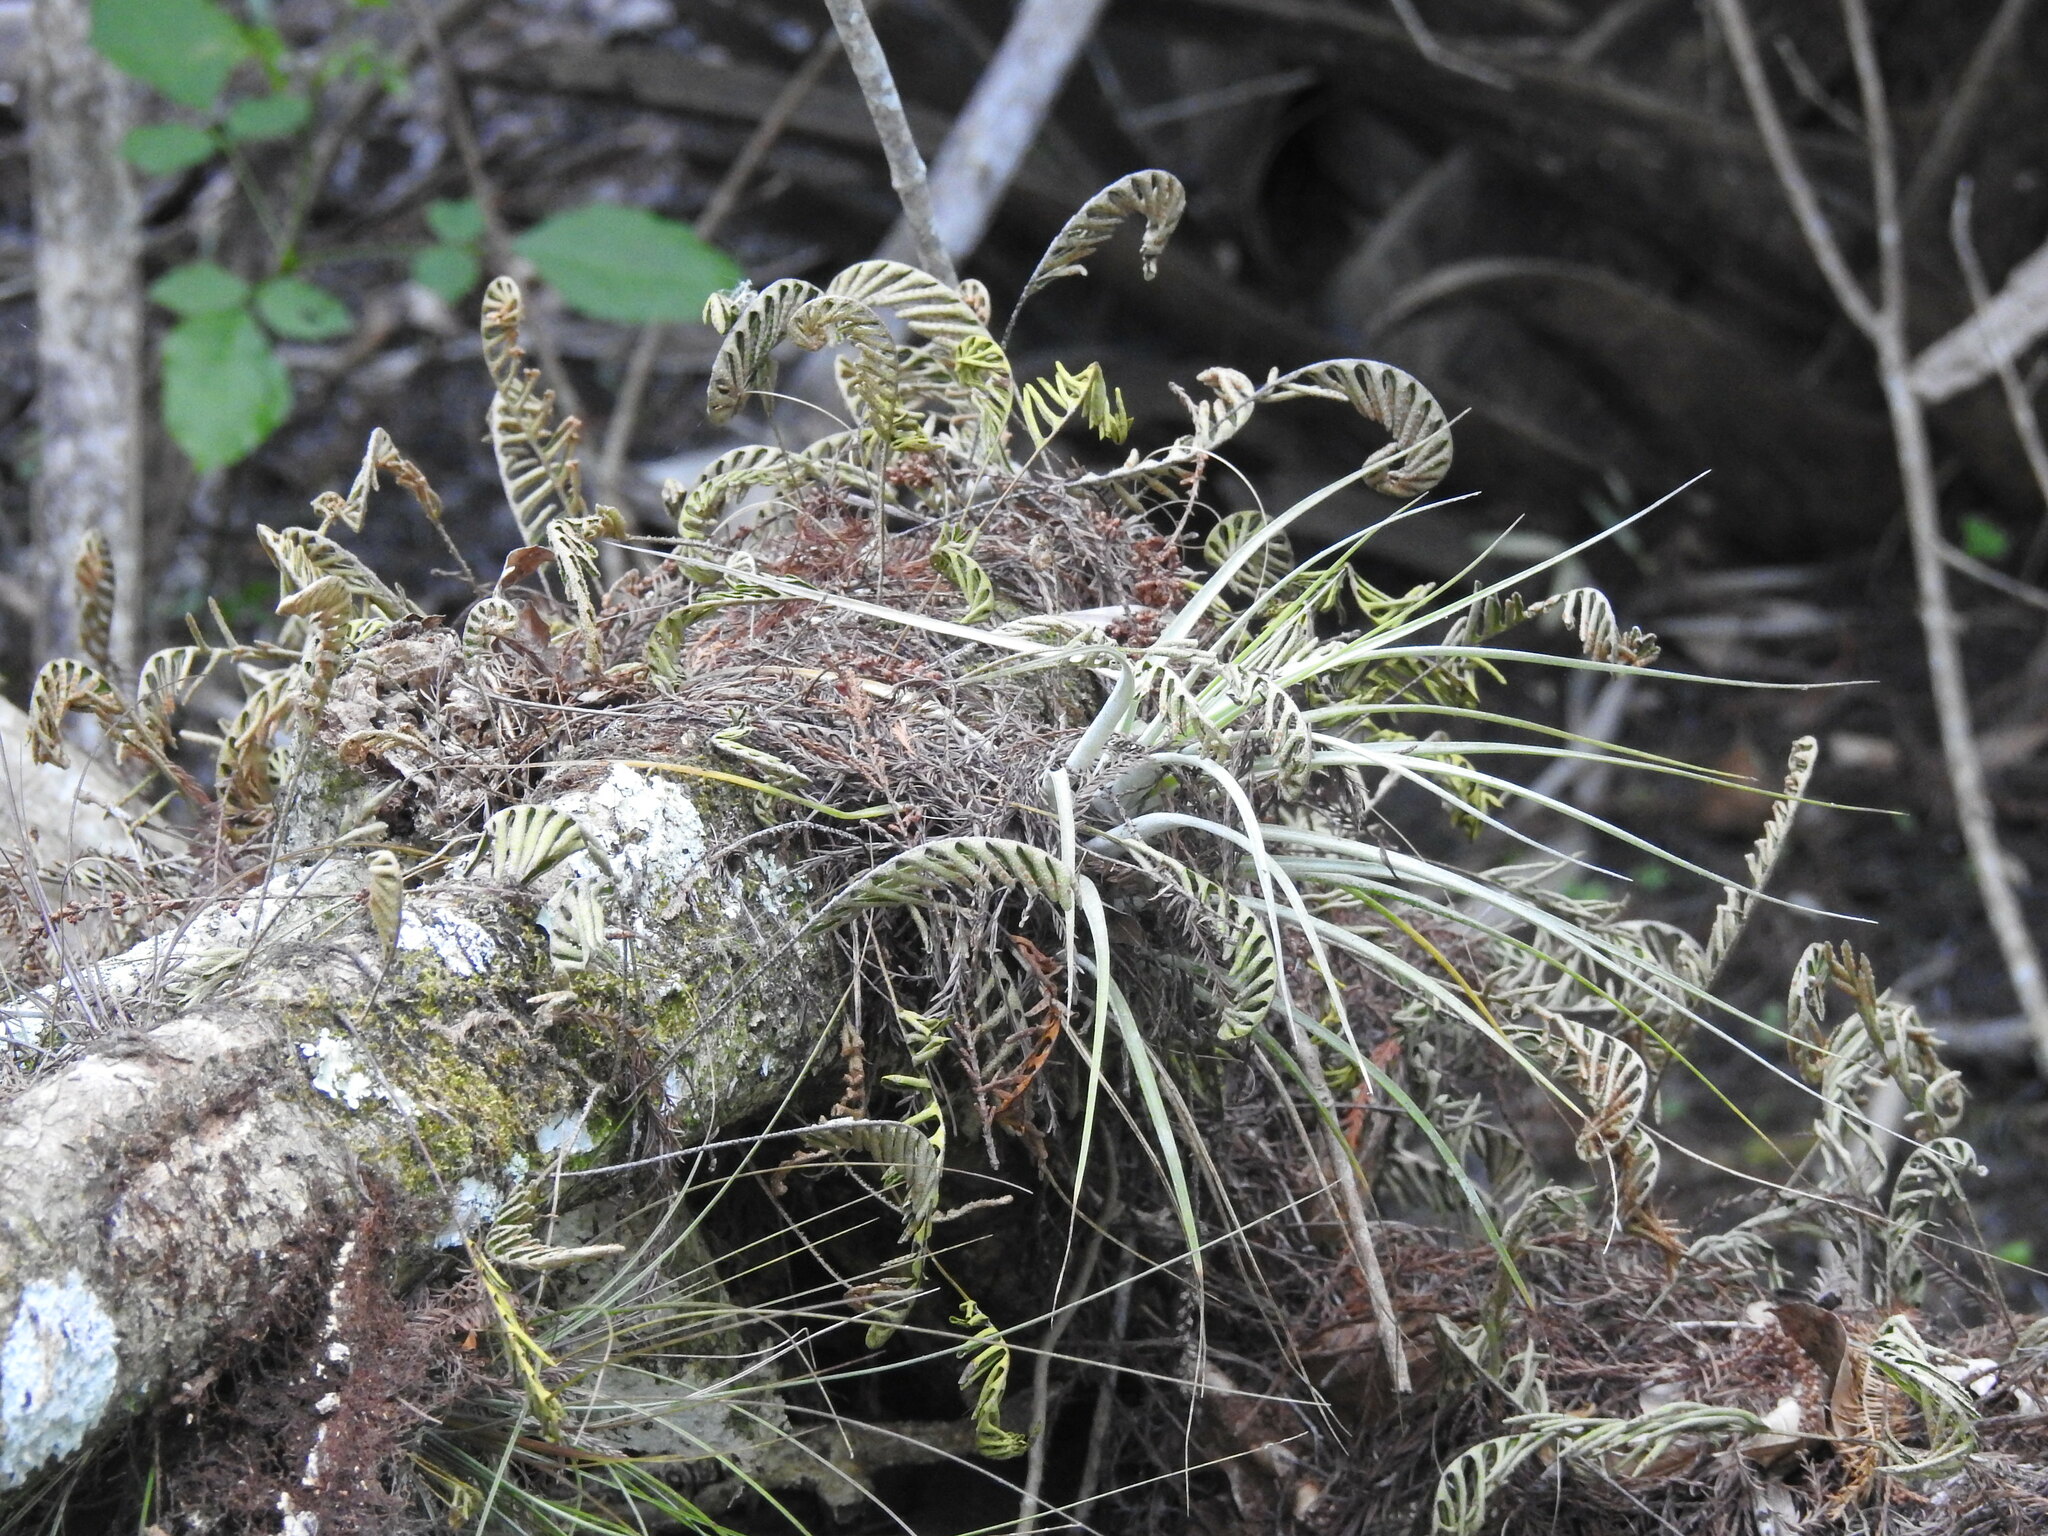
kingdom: Plantae
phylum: Tracheophyta
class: Polypodiopsida
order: Polypodiales
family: Polypodiaceae
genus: Pleopeltis
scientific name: Pleopeltis michauxiana
